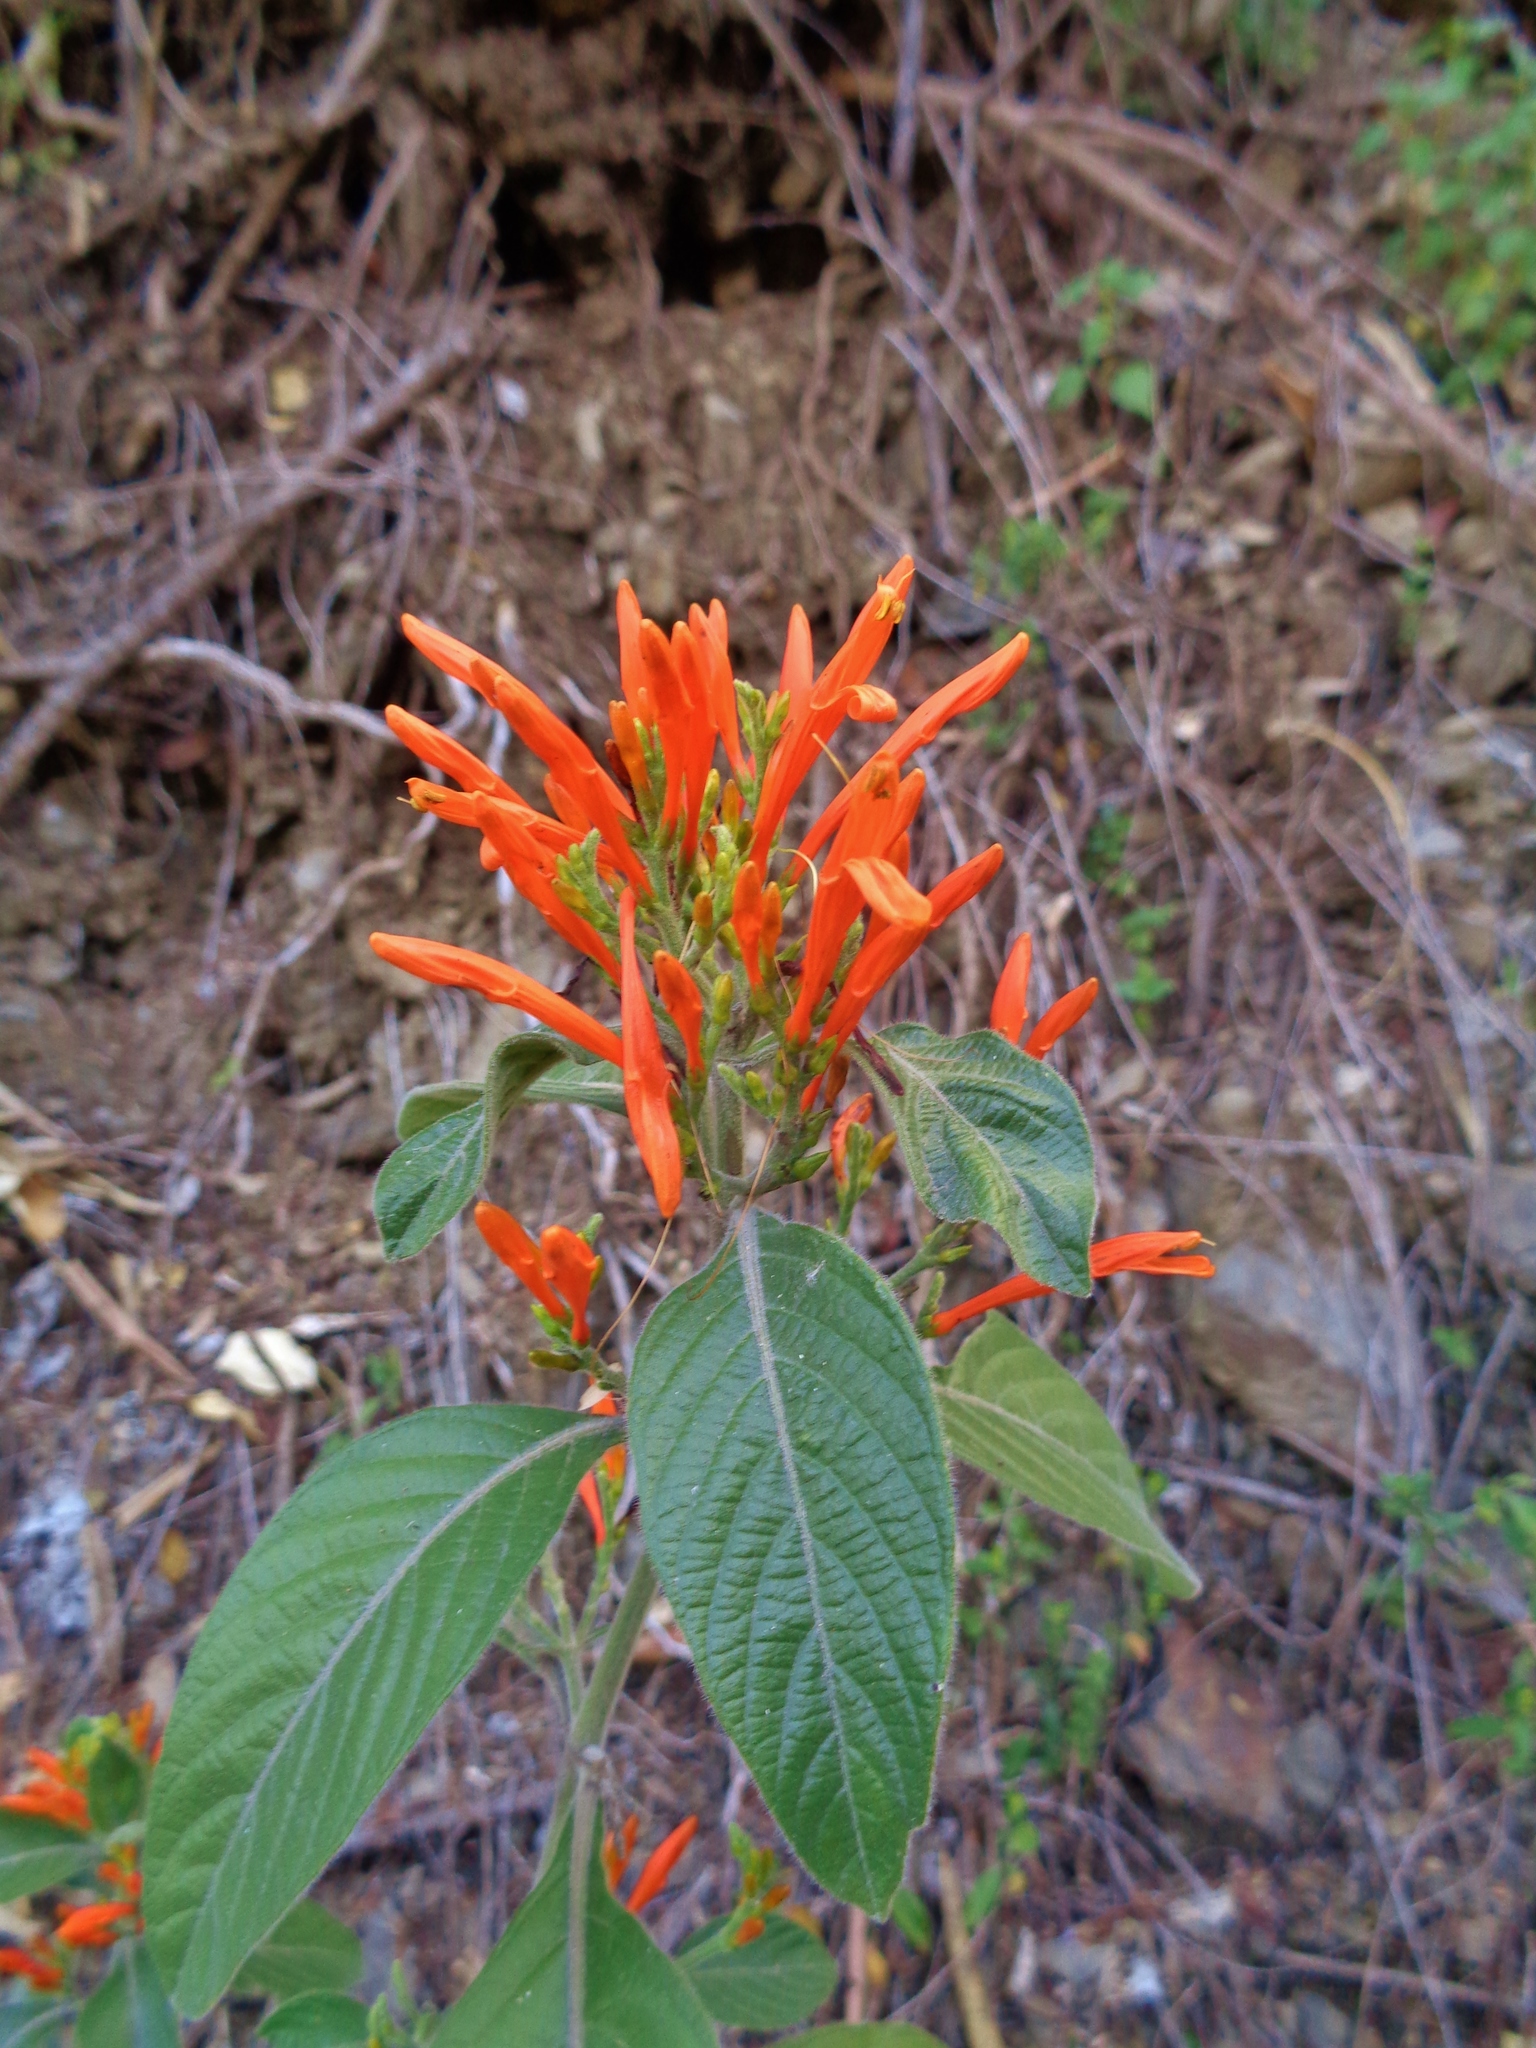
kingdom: Plantae
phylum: Tracheophyta
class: Magnoliopsida
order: Lamiales
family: Acanthaceae
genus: Justicia
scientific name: Justicia spicigera
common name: Mohintli
